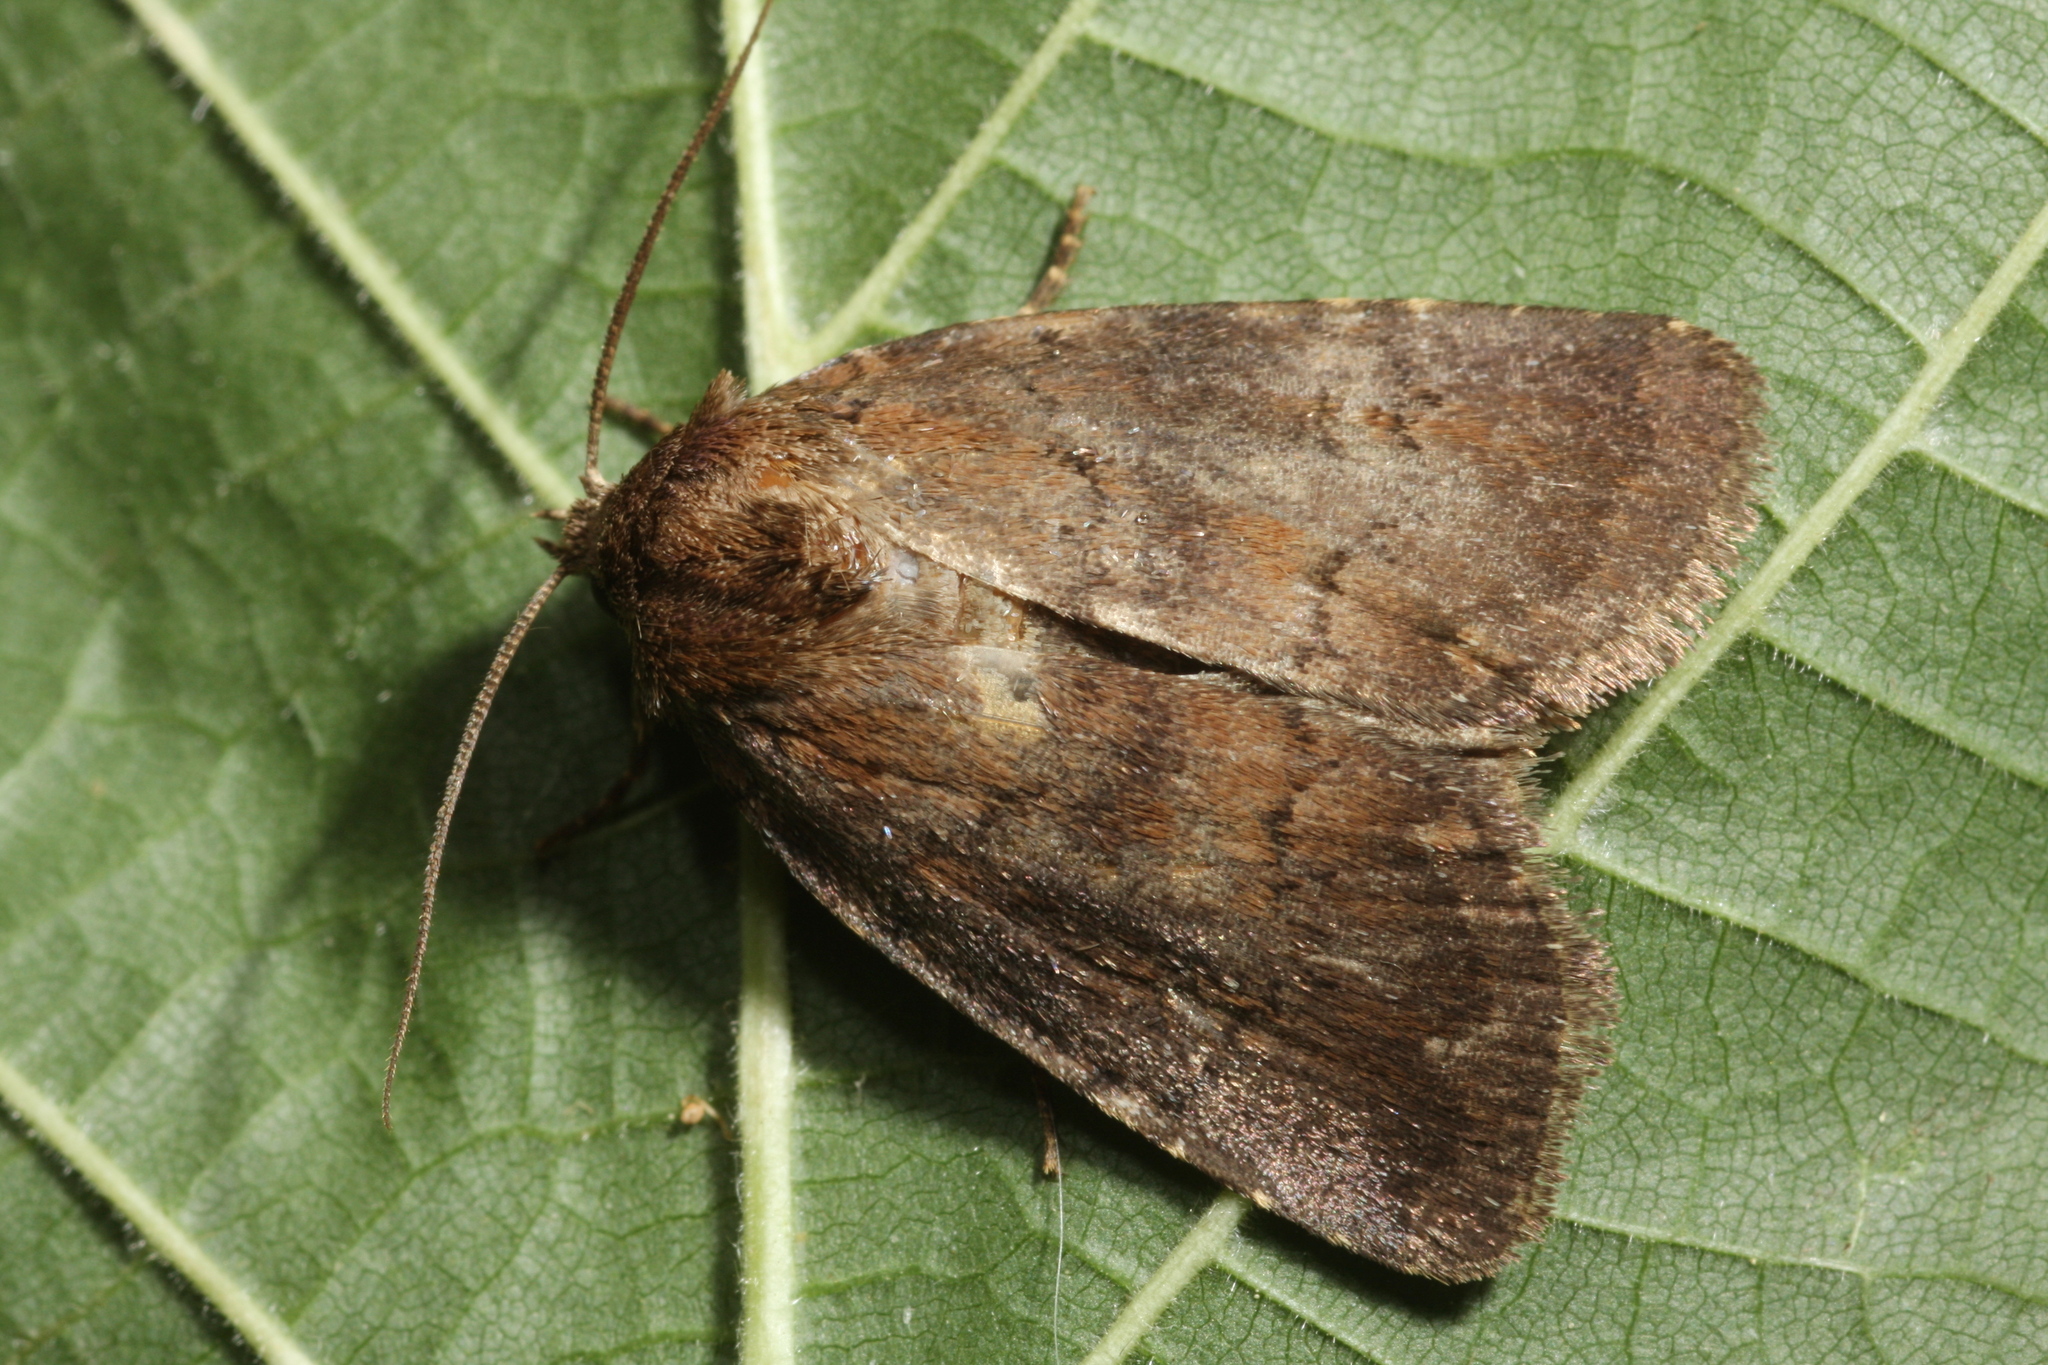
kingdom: Animalia
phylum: Arthropoda
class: Insecta
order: Lepidoptera
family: Noctuidae
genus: Charanyca
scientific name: Charanyca ferruginea
